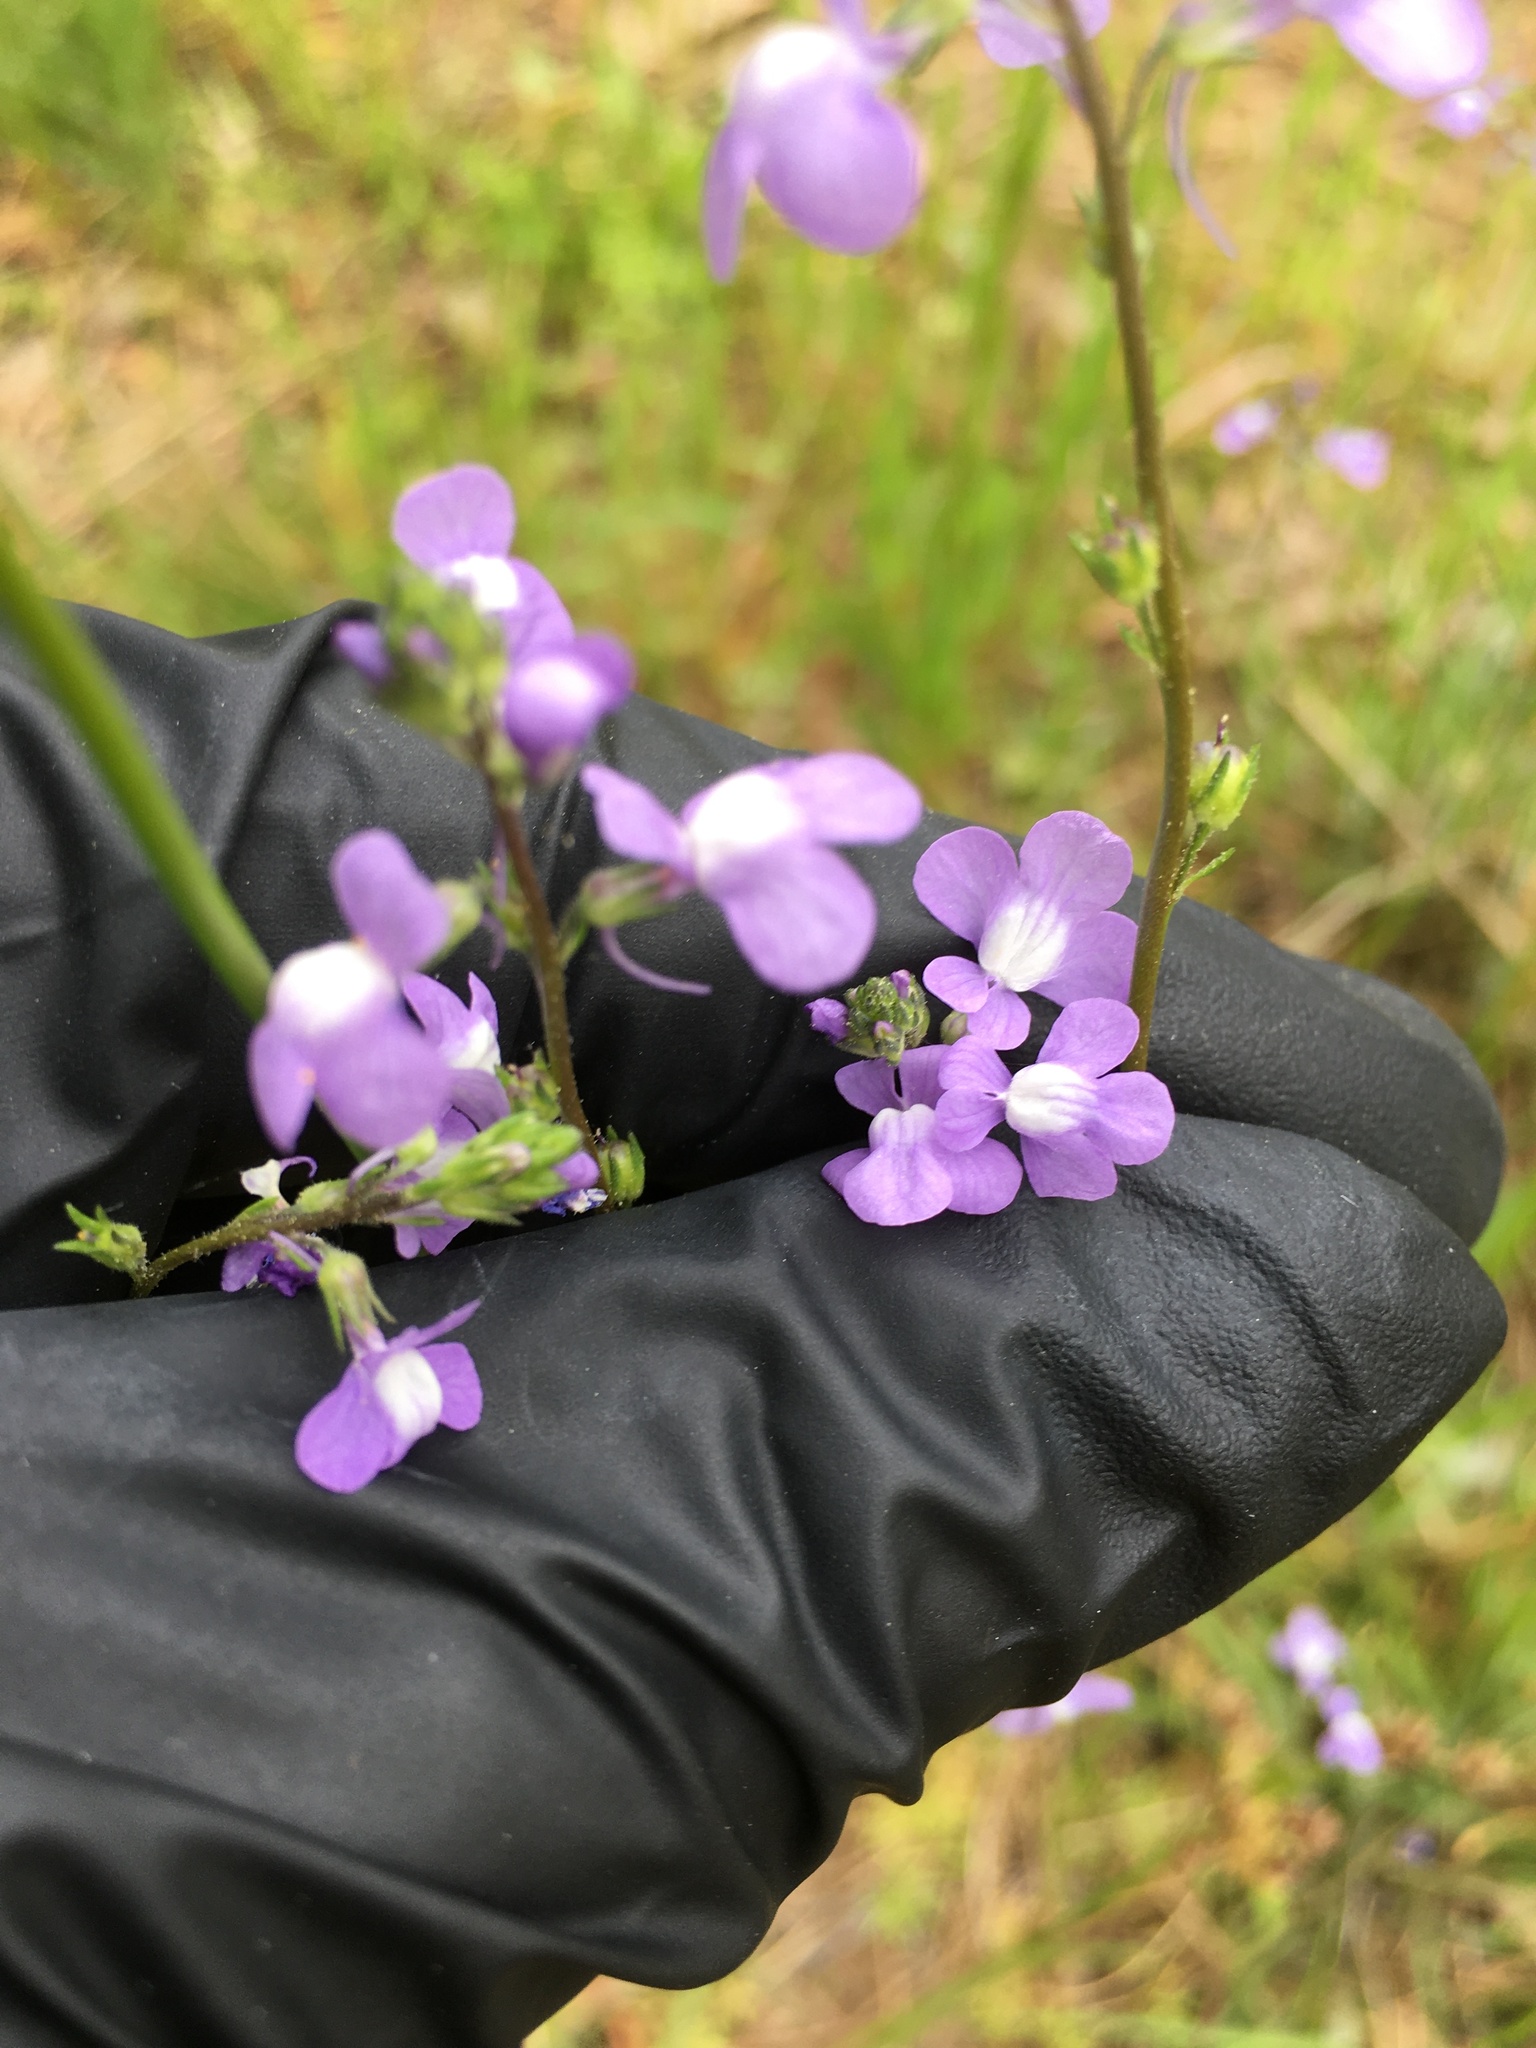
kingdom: Plantae
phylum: Tracheophyta
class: Magnoliopsida
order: Lamiales
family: Plantaginaceae
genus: Nuttallanthus
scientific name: Nuttallanthus canadensis
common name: Blue toadflax
